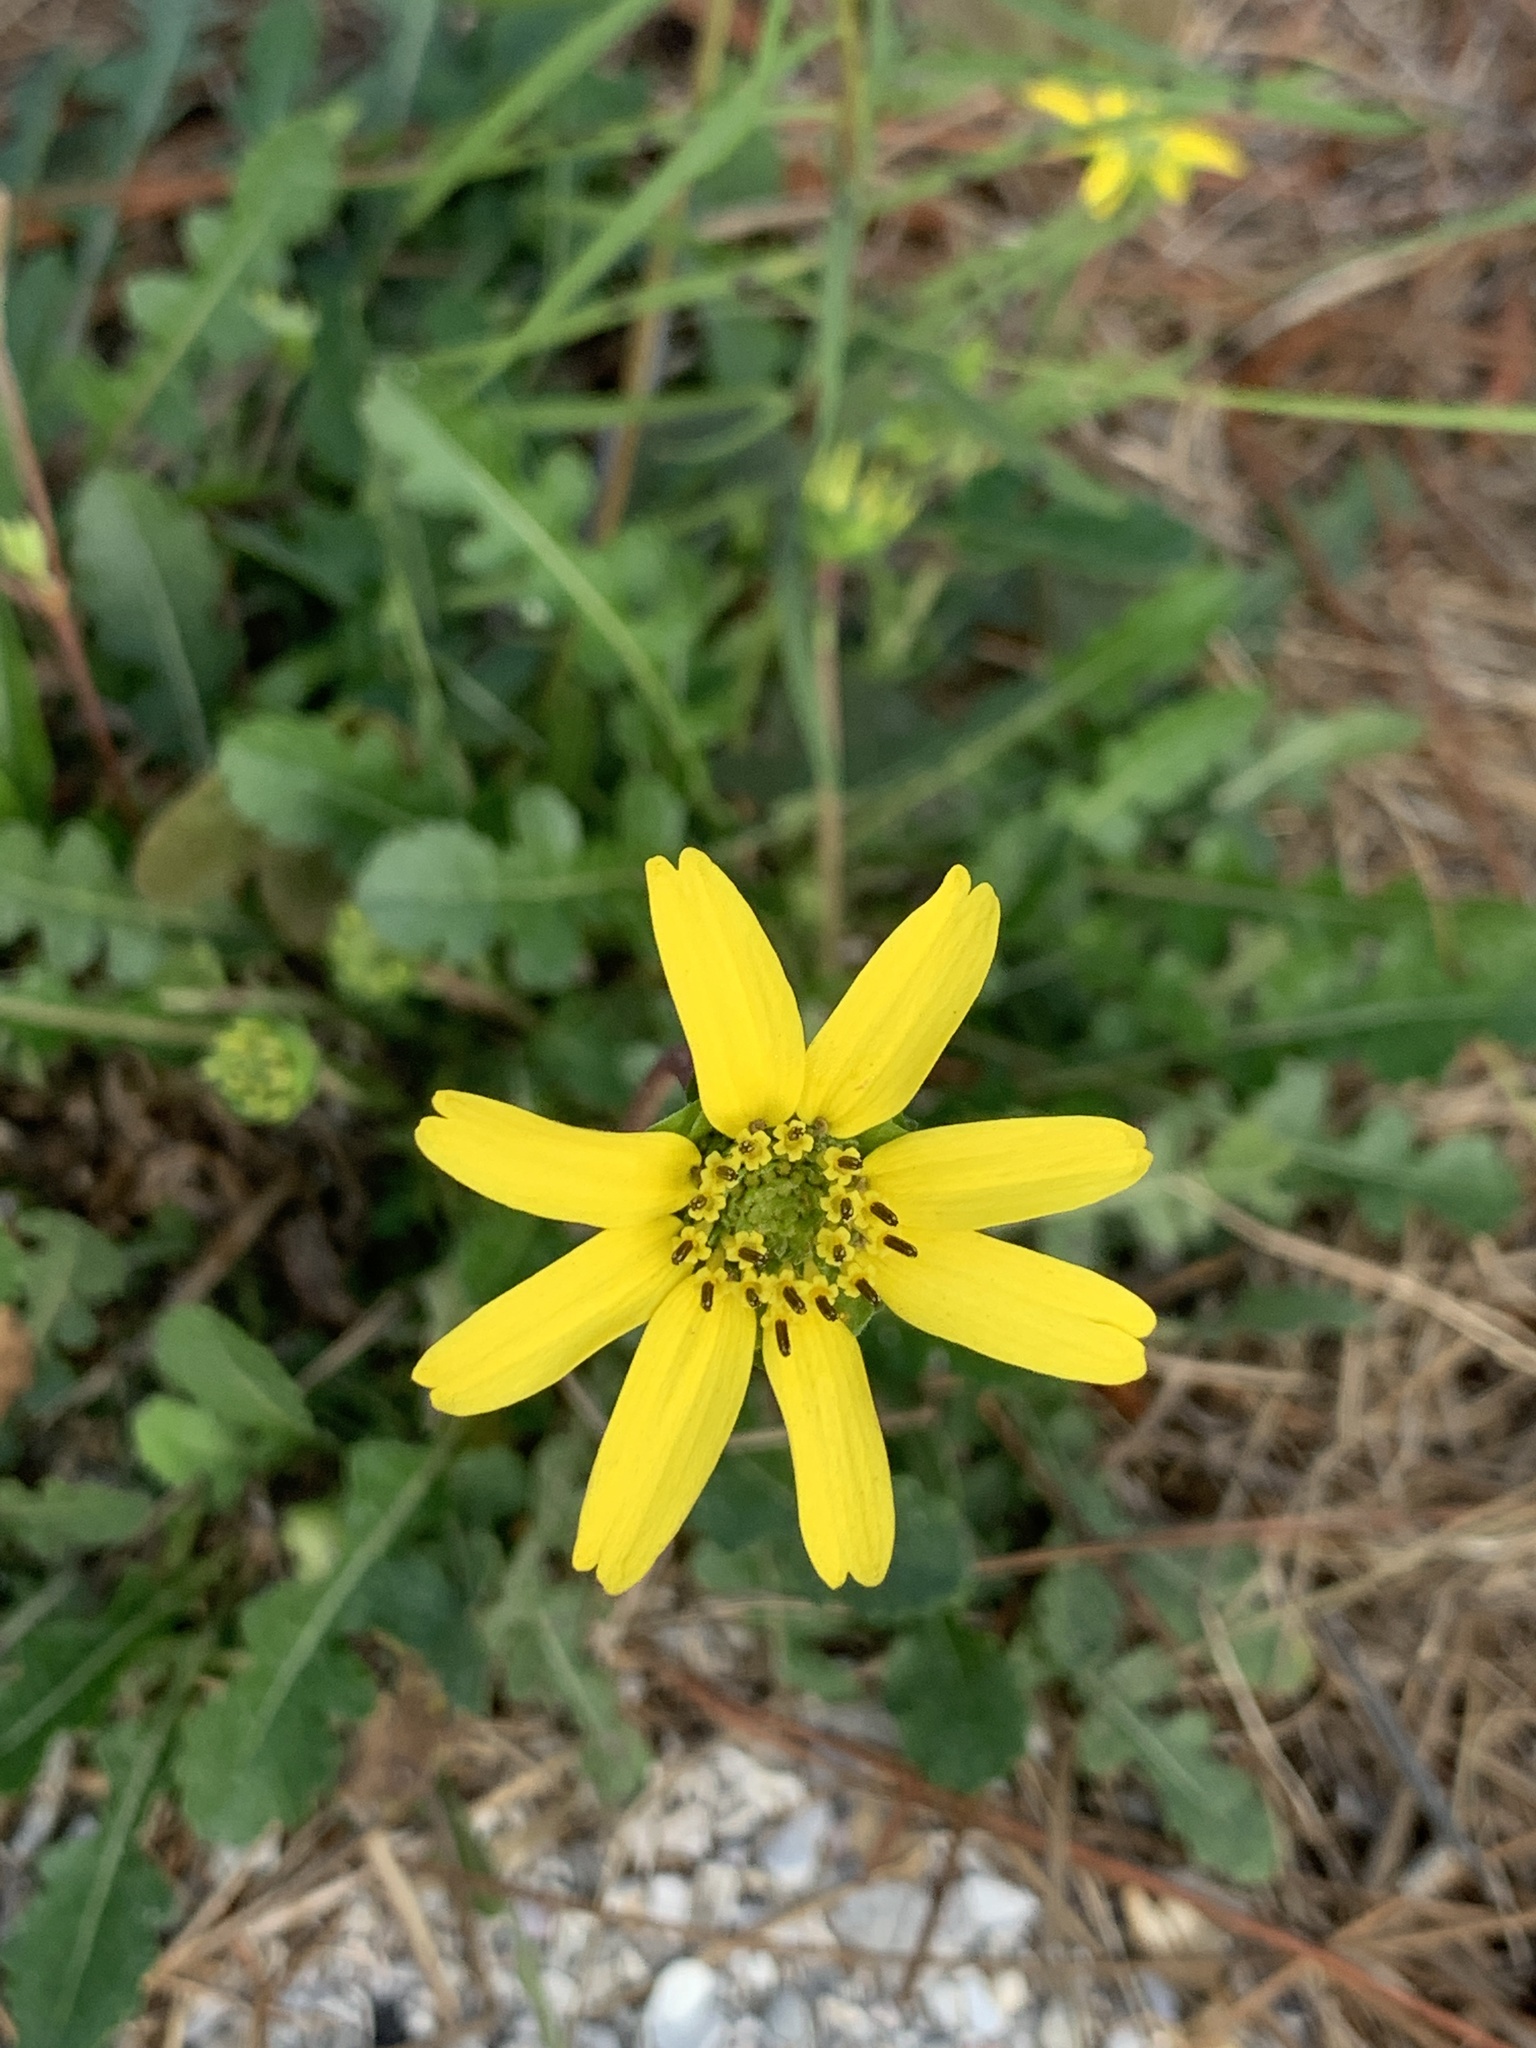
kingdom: Plantae
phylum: Tracheophyta
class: Magnoliopsida
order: Asterales
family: Asteraceae
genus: Berlandiera
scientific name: Berlandiera subacaulis
